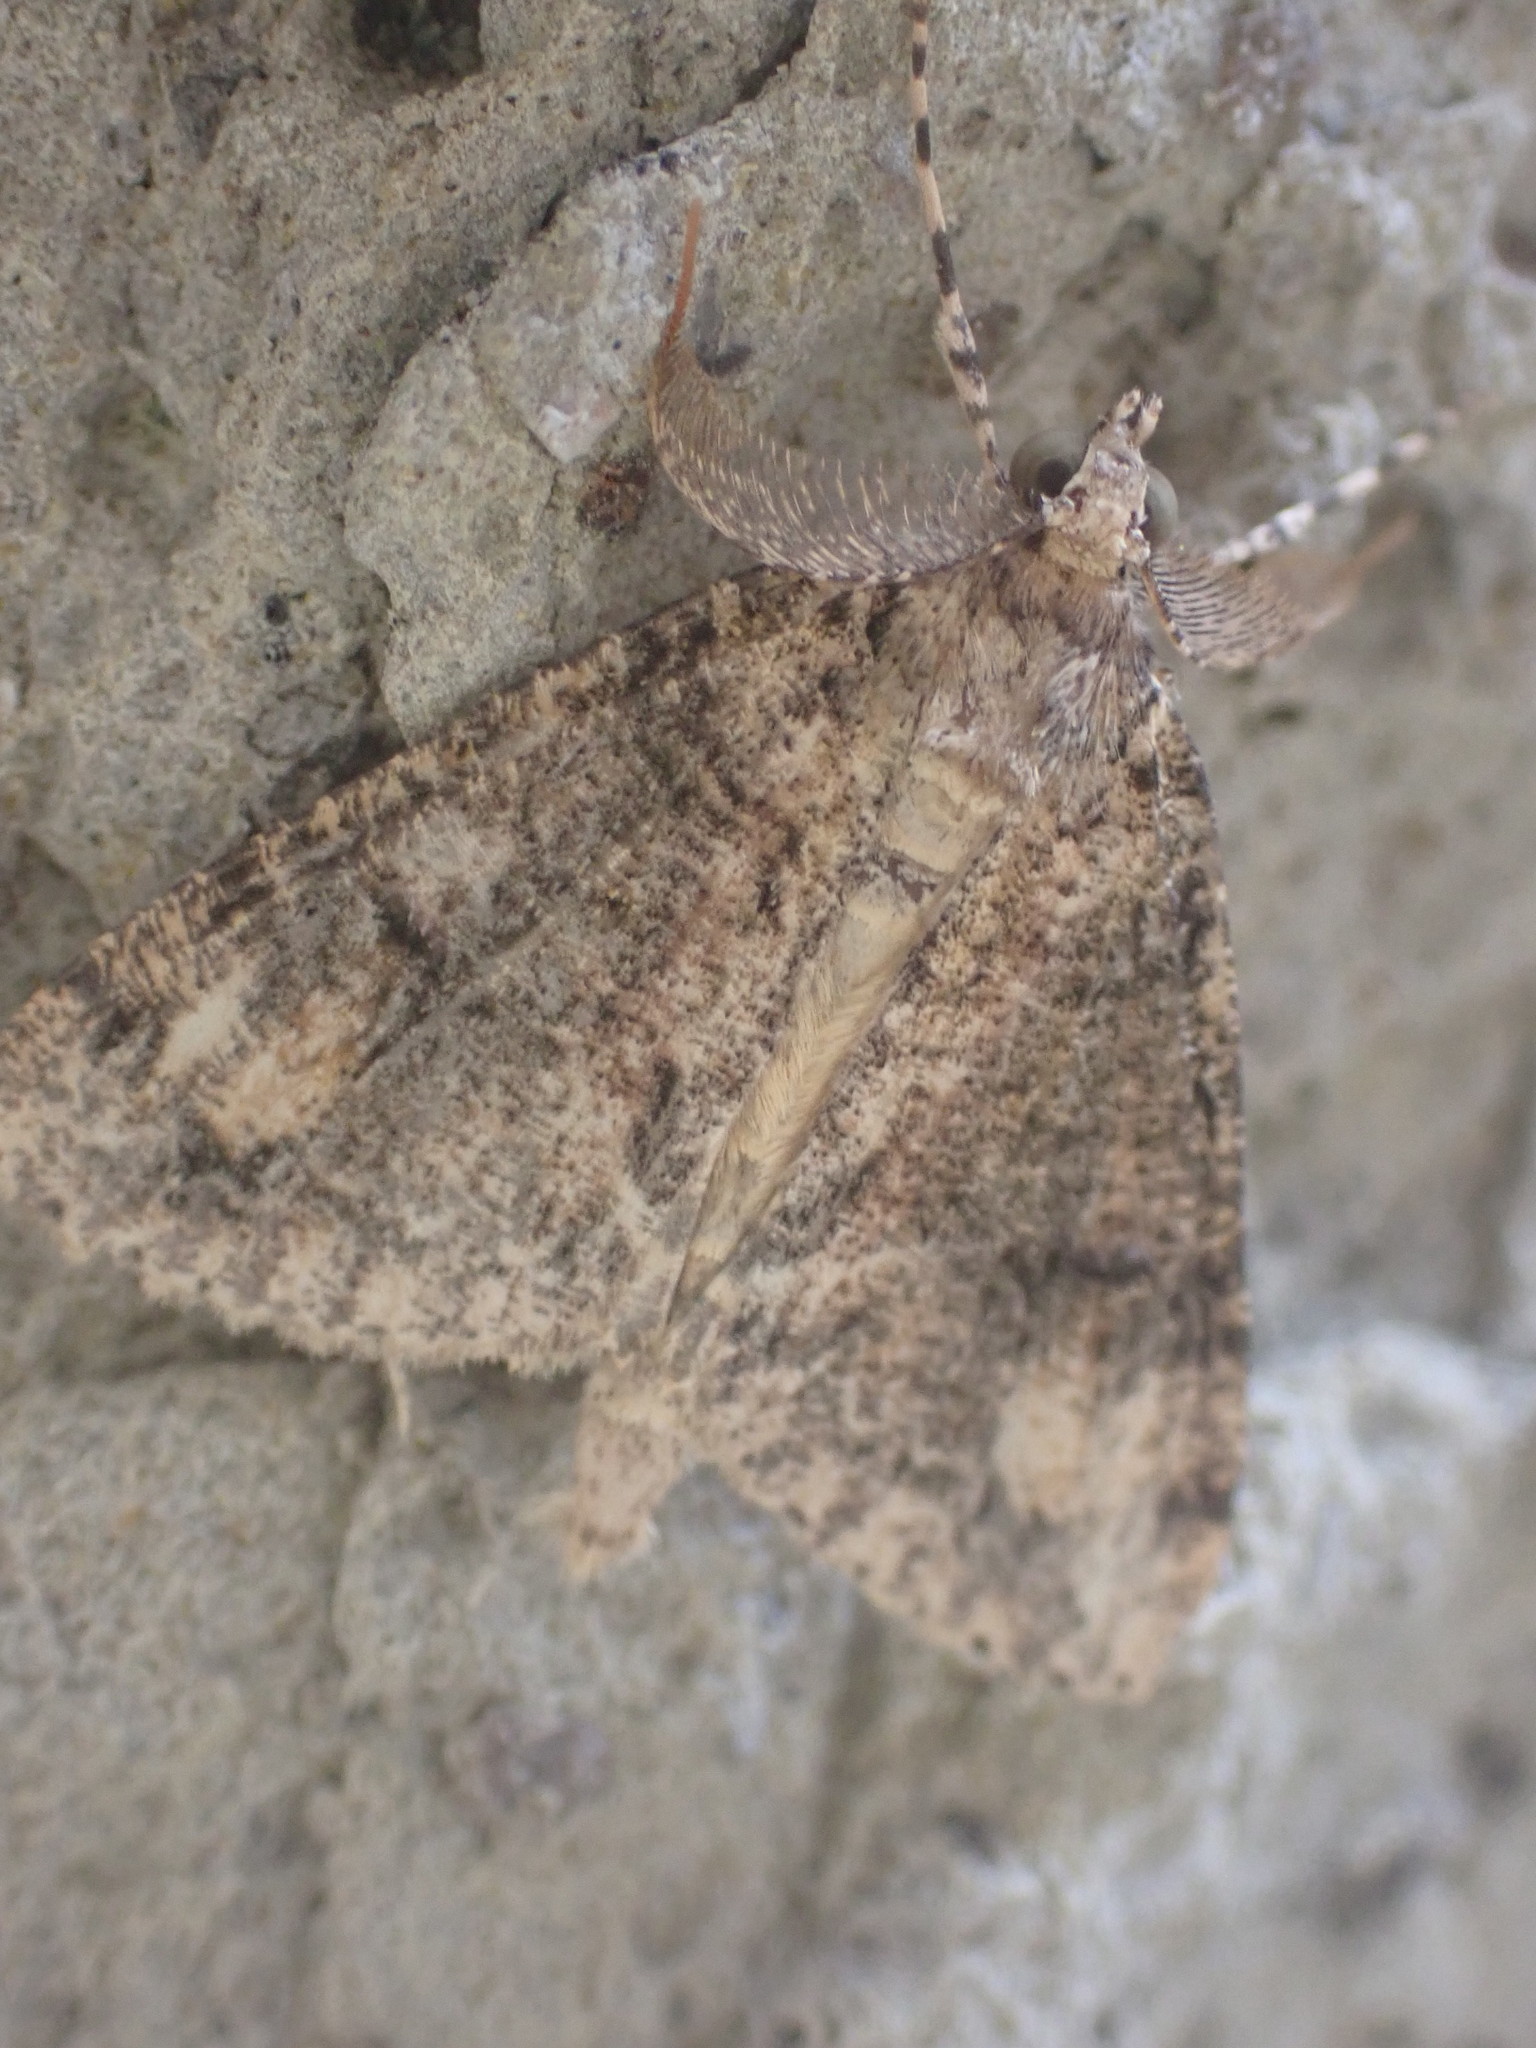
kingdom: Animalia
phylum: Arthropoda
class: Insecta
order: Lepidoptera
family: Geometridae
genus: Pseudocoremia
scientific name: Pseudocoremia suavis
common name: Common forest looper
